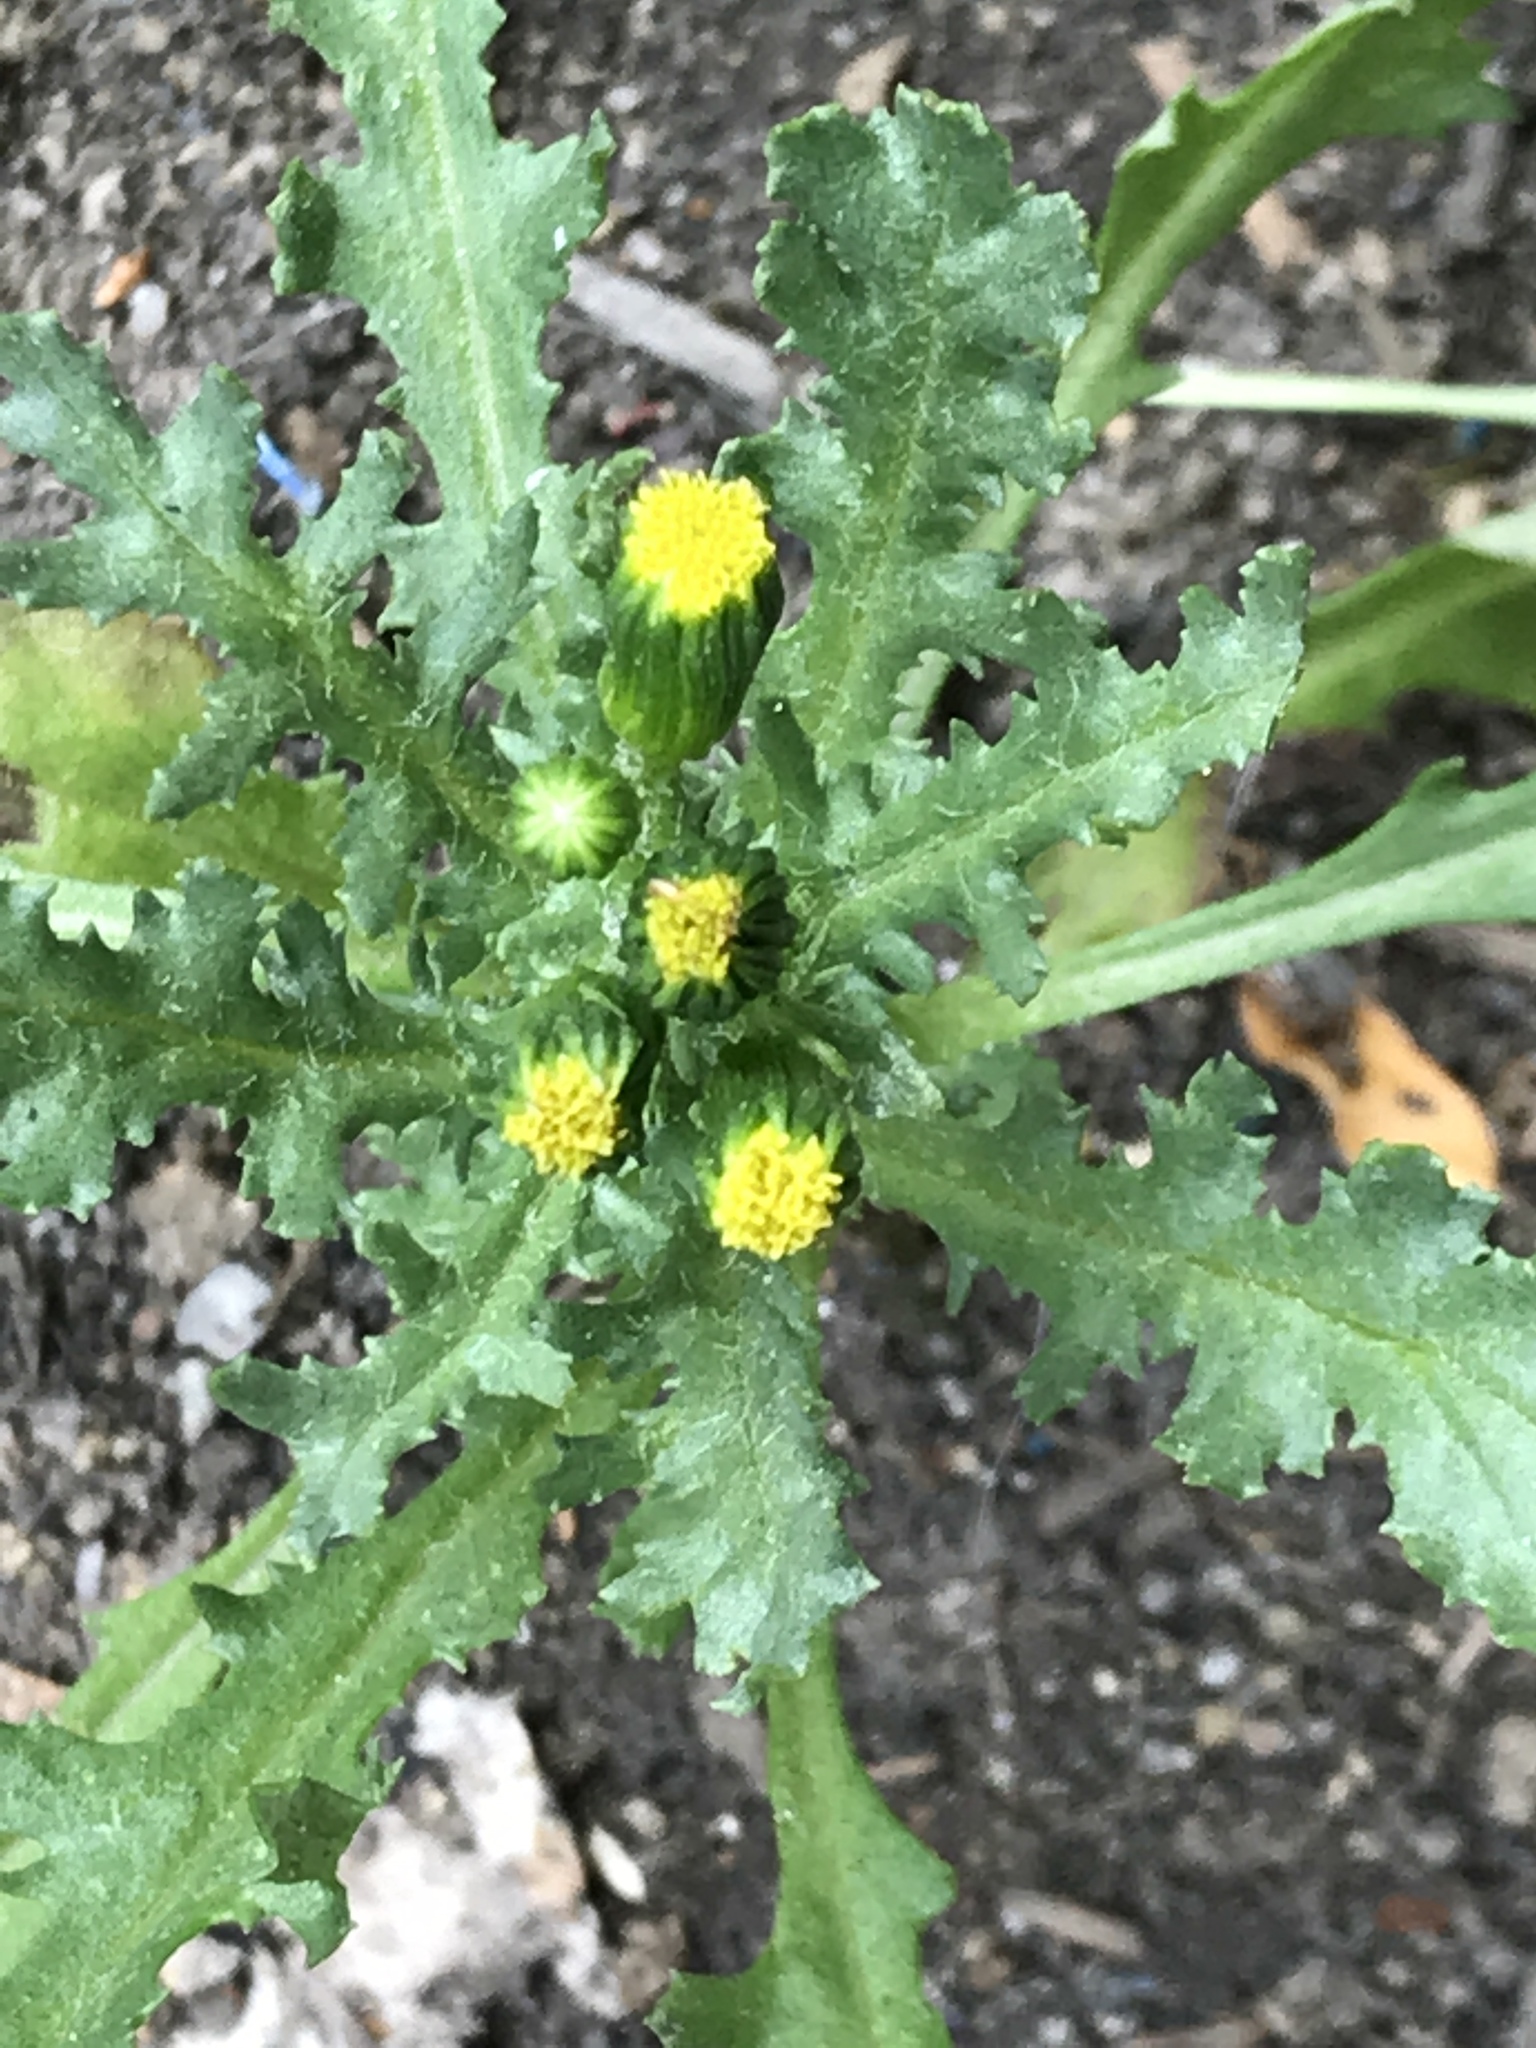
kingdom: Plantae
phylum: Tracheophyta
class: Magnoliopsida
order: Asterales
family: Asteraceae
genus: Senecio
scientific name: Senecio vulgaris
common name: Old-man-in-the-spring
